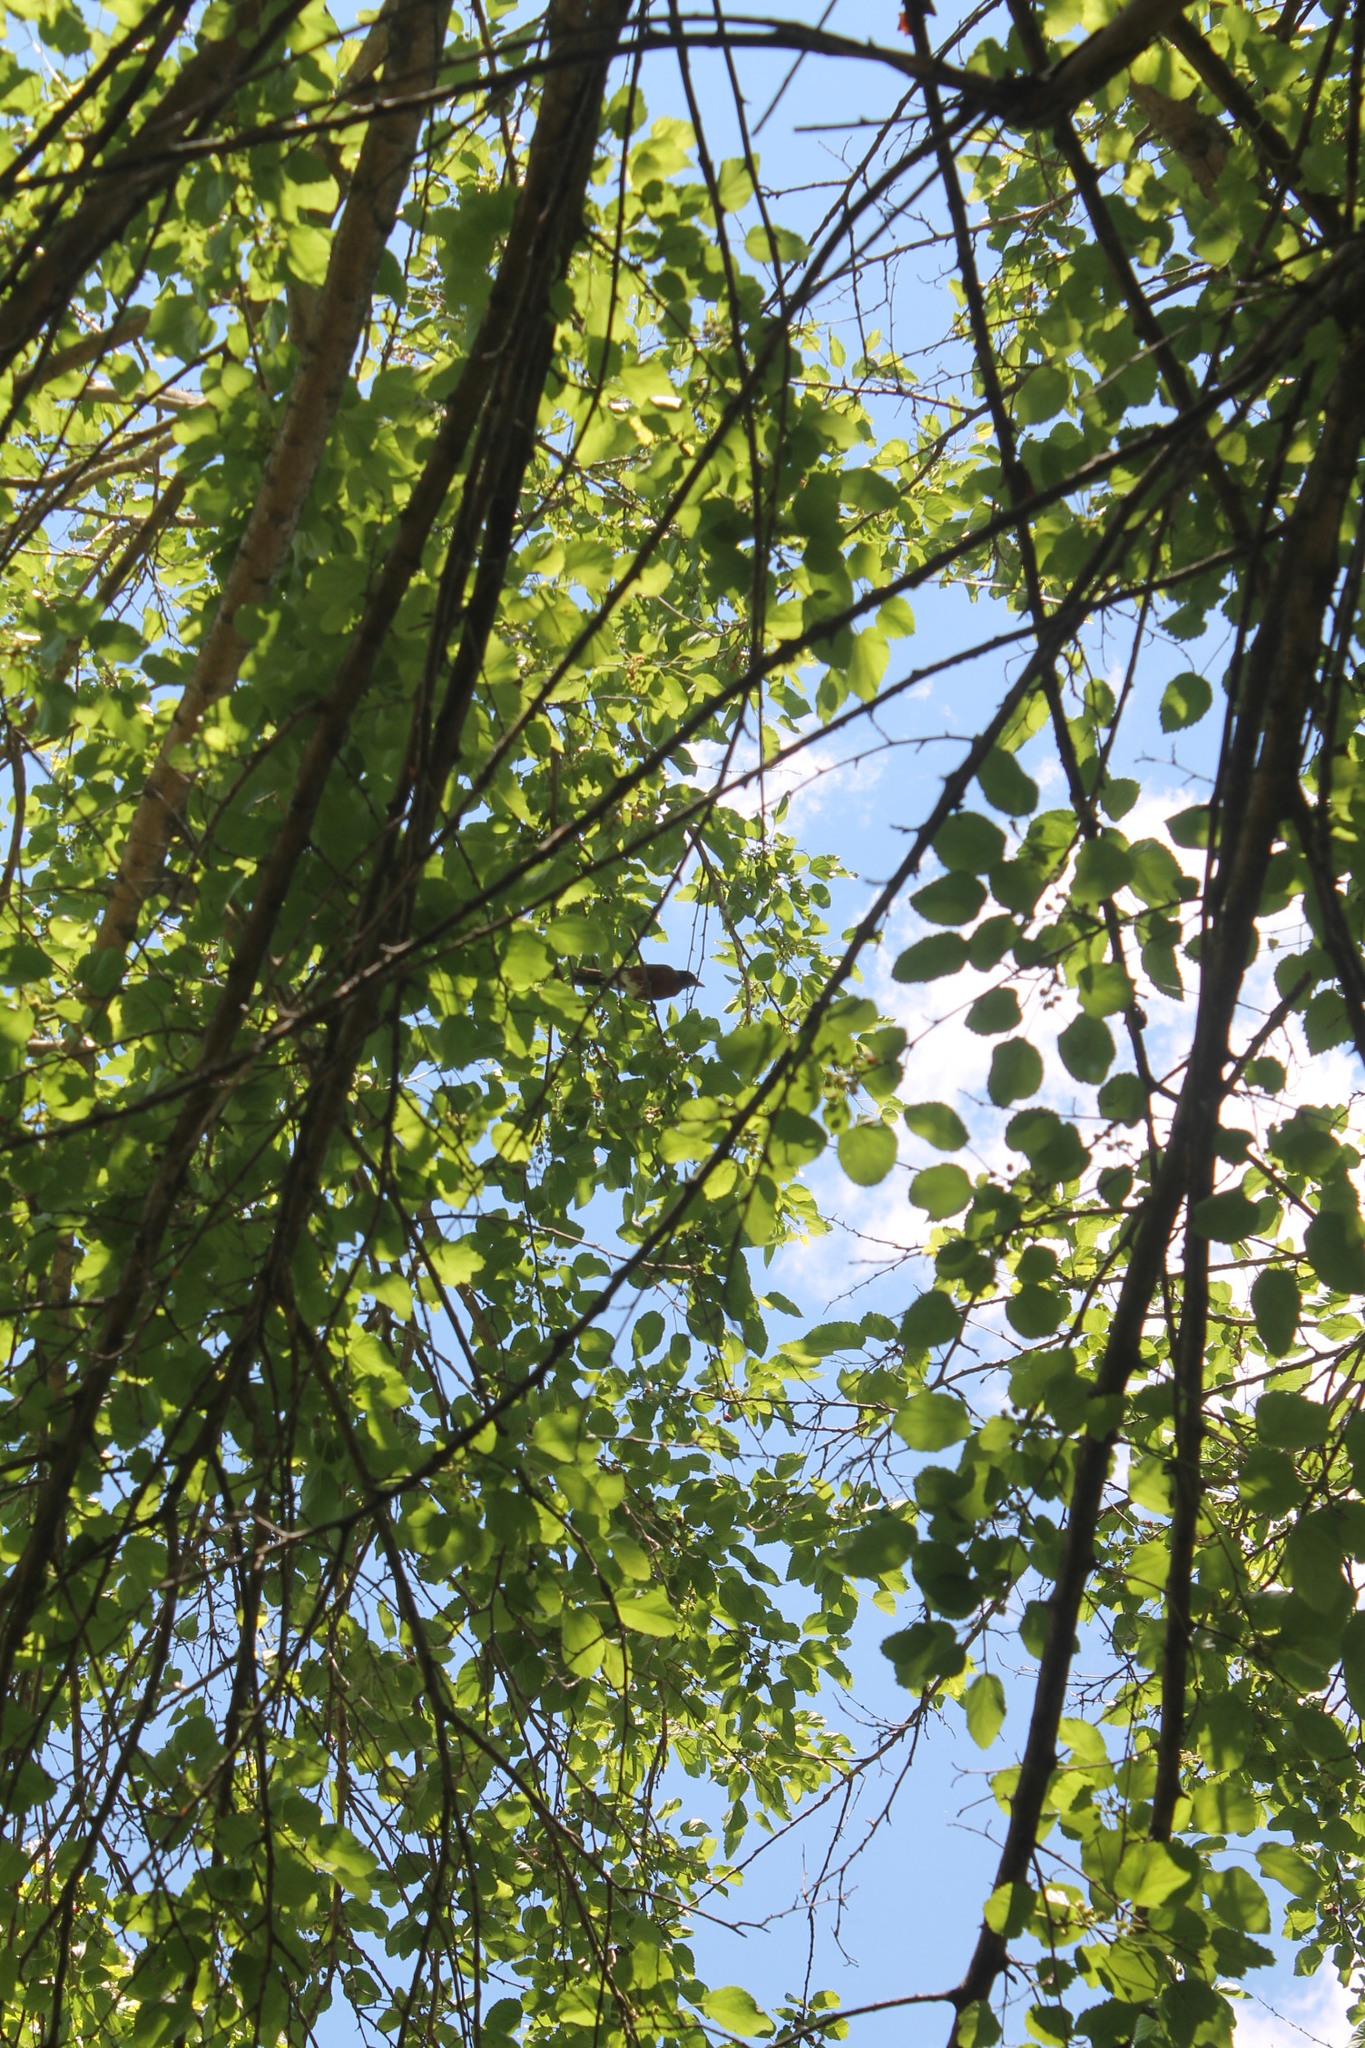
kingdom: Animalia
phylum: Chordata
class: Aves
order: Passeriformes
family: Turdidae
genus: Turdus
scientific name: Turdus migratorius
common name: American robin
